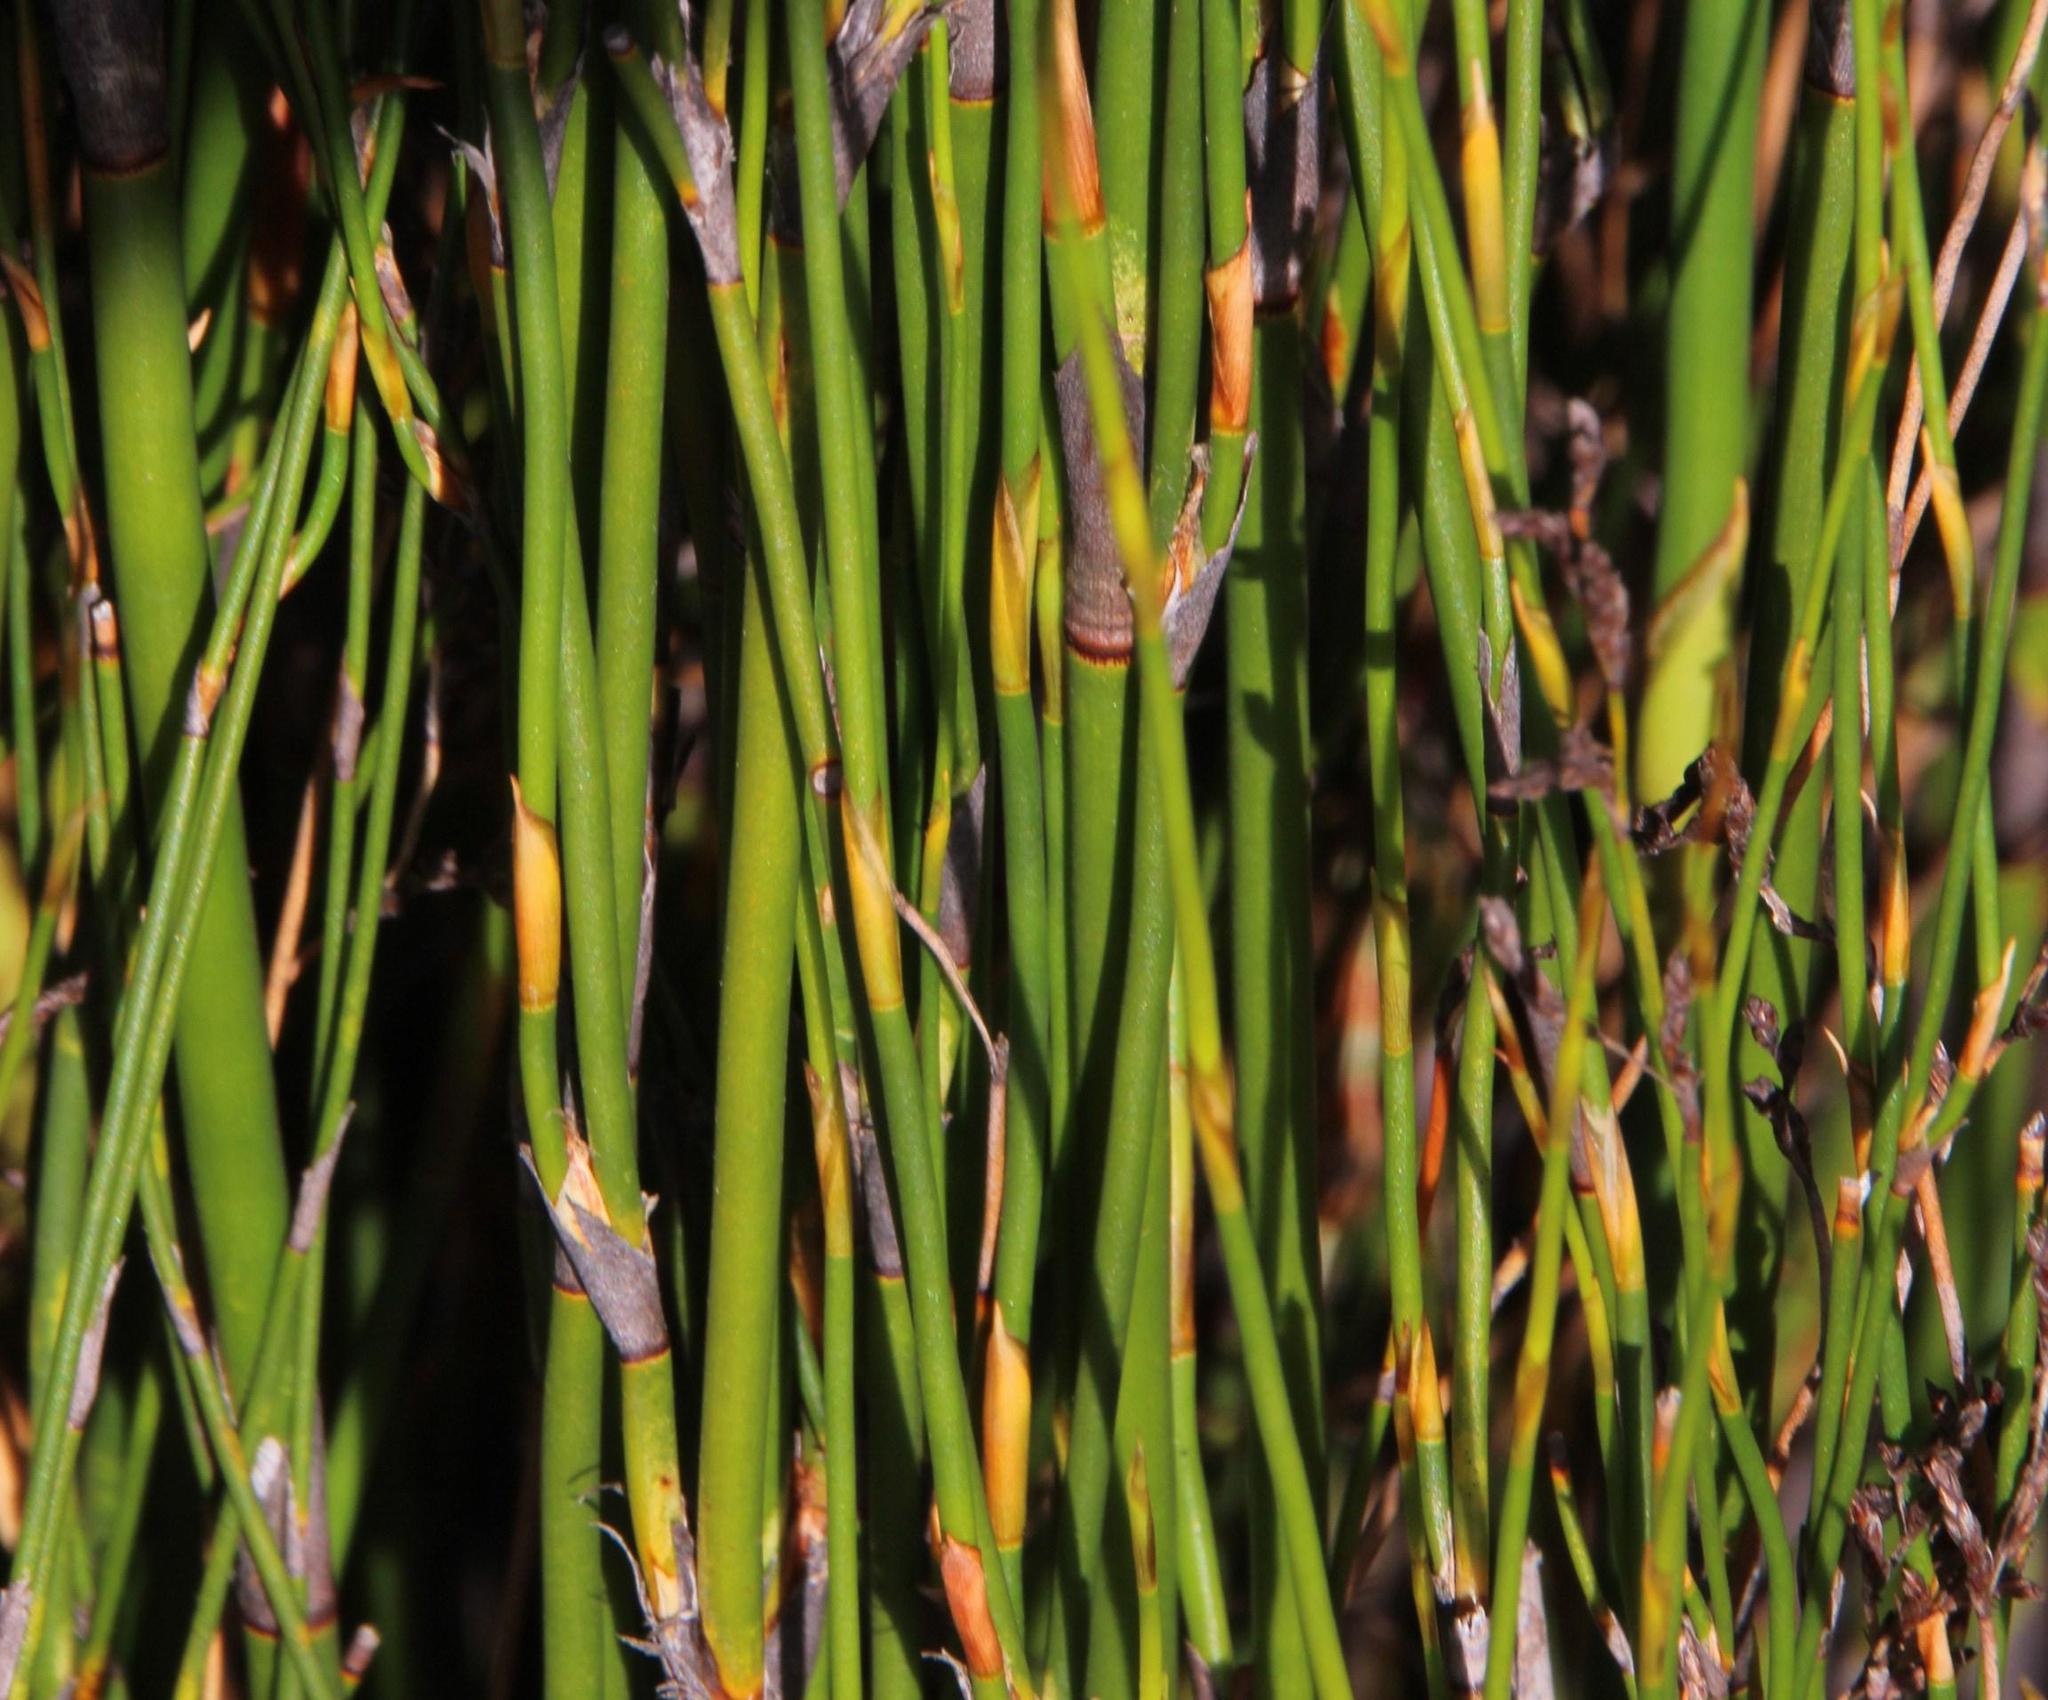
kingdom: Plantae
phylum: Tracheophyta
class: Liliopsida
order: Poales
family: Restionaceae
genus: Restio
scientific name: Restio luxurians
